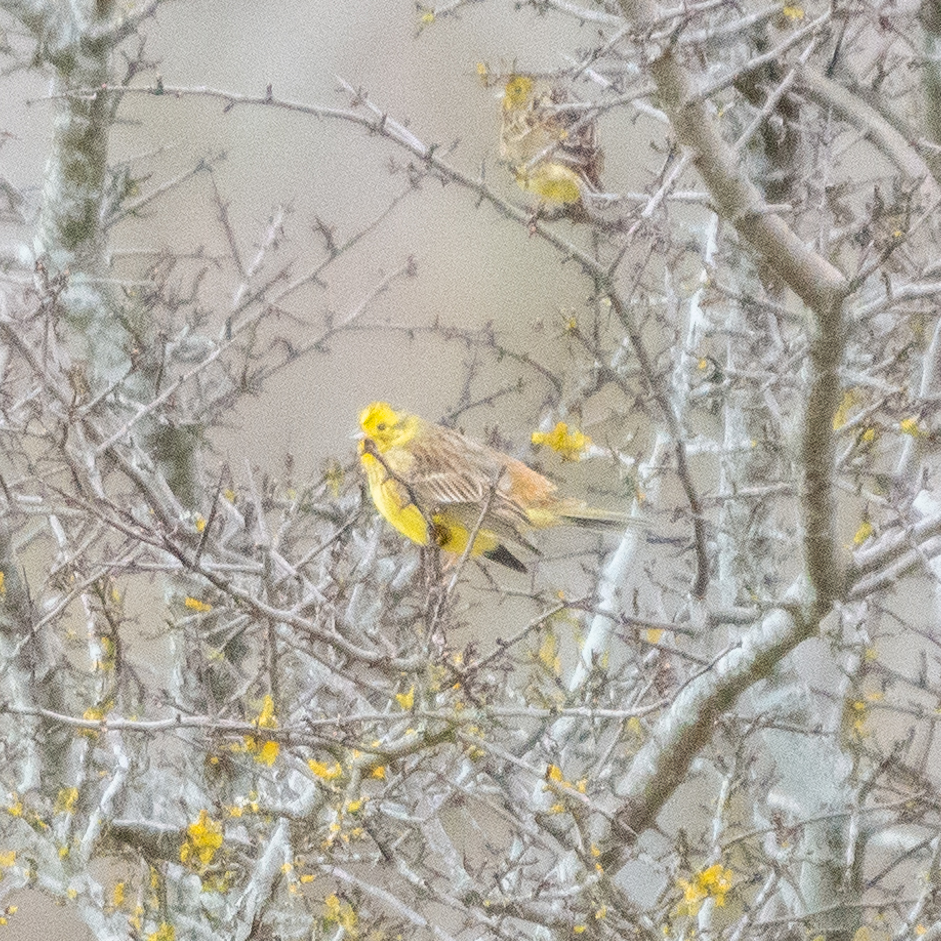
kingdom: Animalia
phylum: Chordata
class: Aves
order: Passeriformes
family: Emberizidae
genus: Emberiza
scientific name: Emberiza citrinella
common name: Yellowhammer
